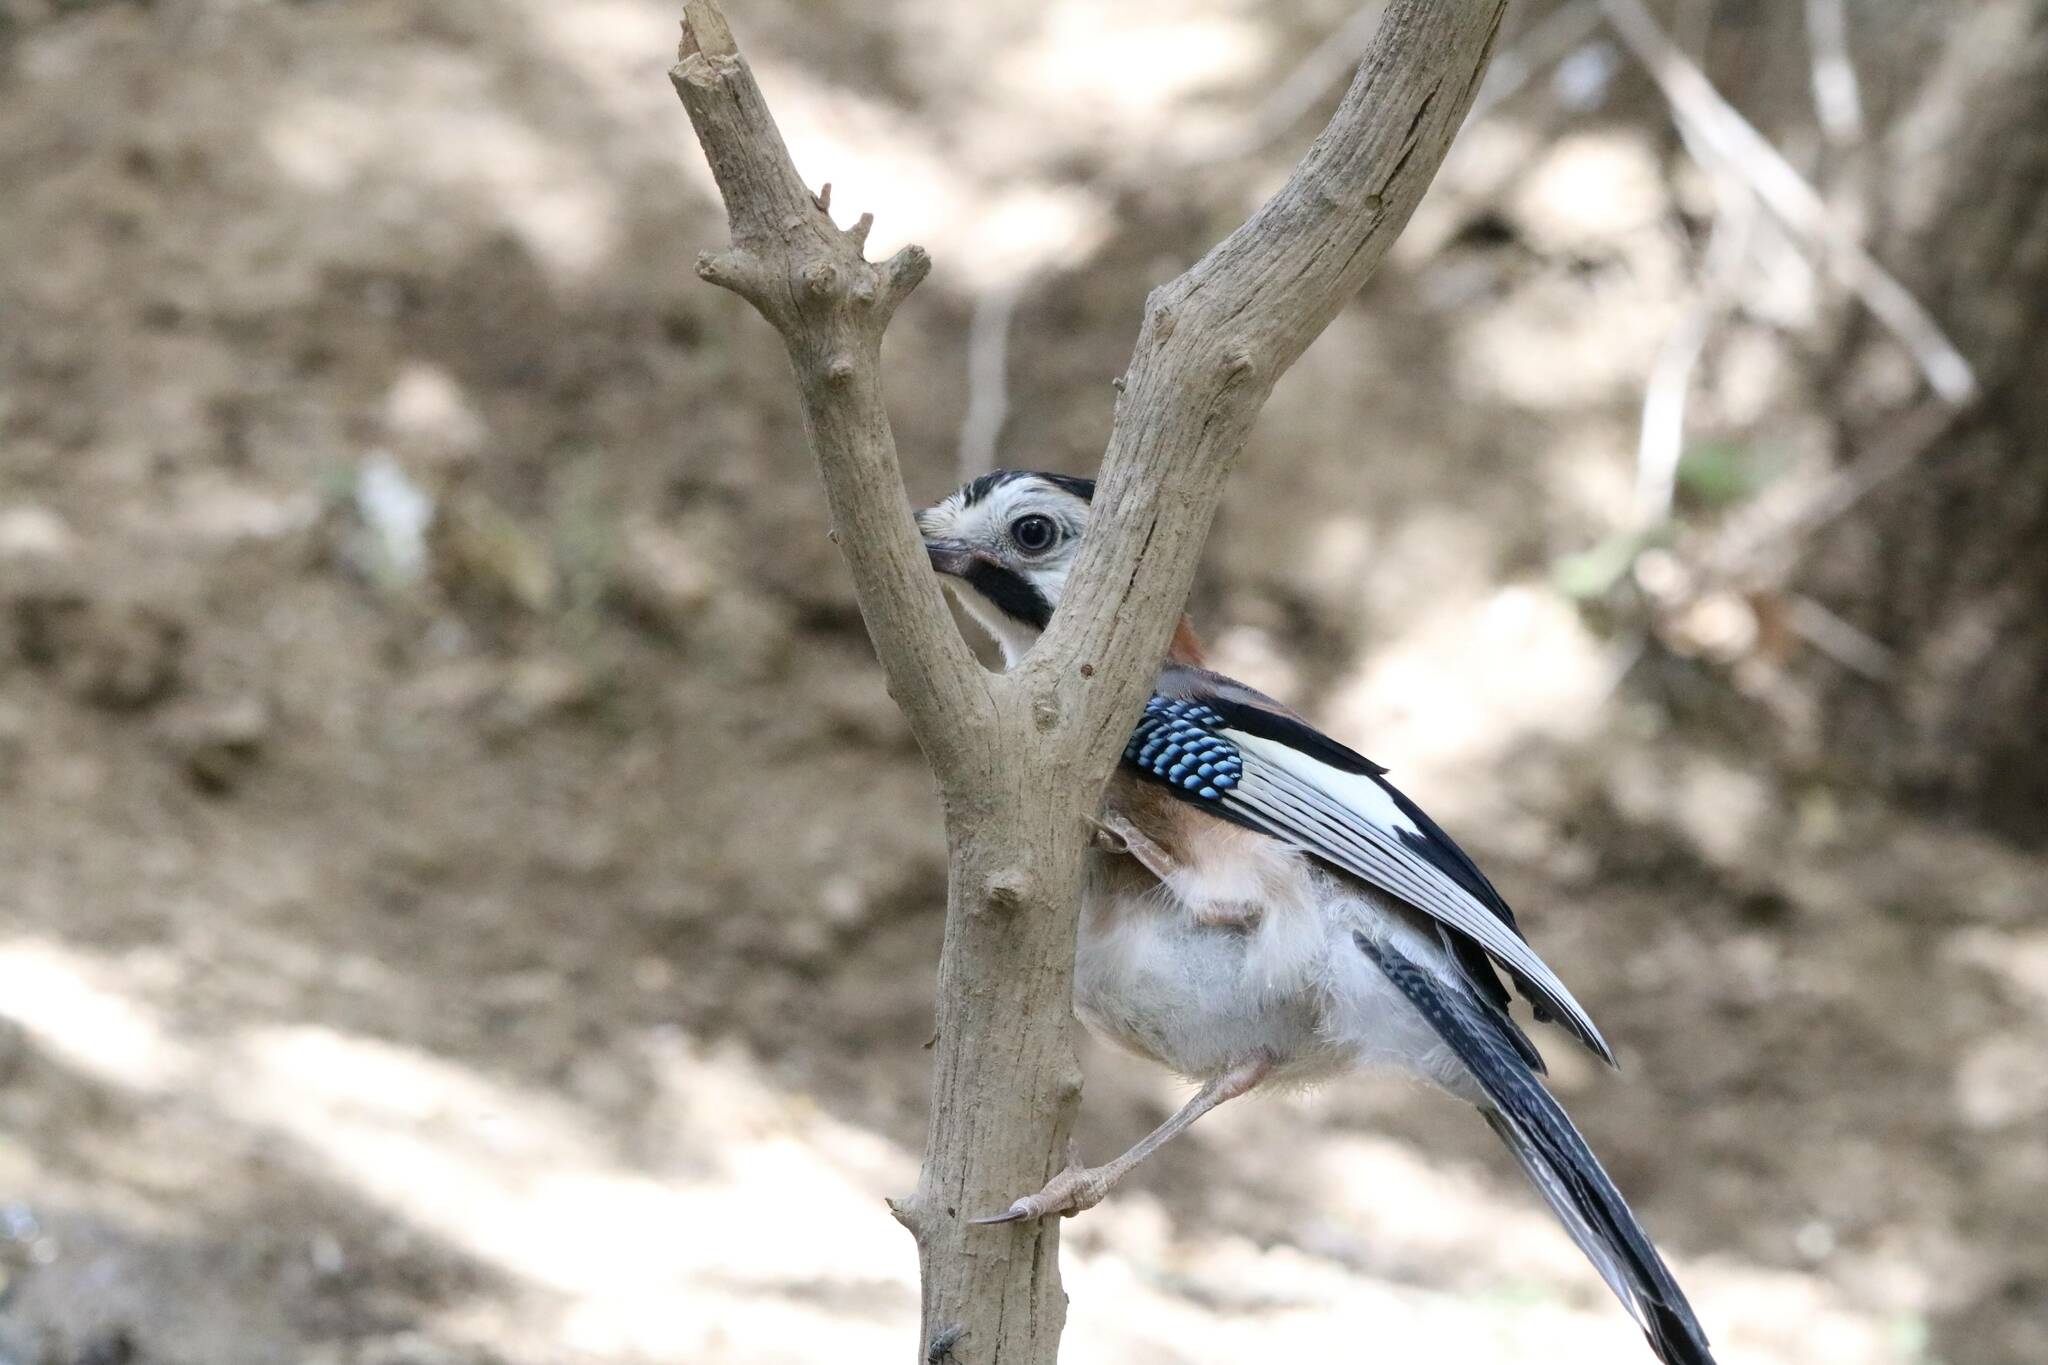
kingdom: Animalia
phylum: Chordata
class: Aves
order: Passeriformes
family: Corvidae
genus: Garrulus
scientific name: Garrulus glandarius
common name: Eurasian jay
